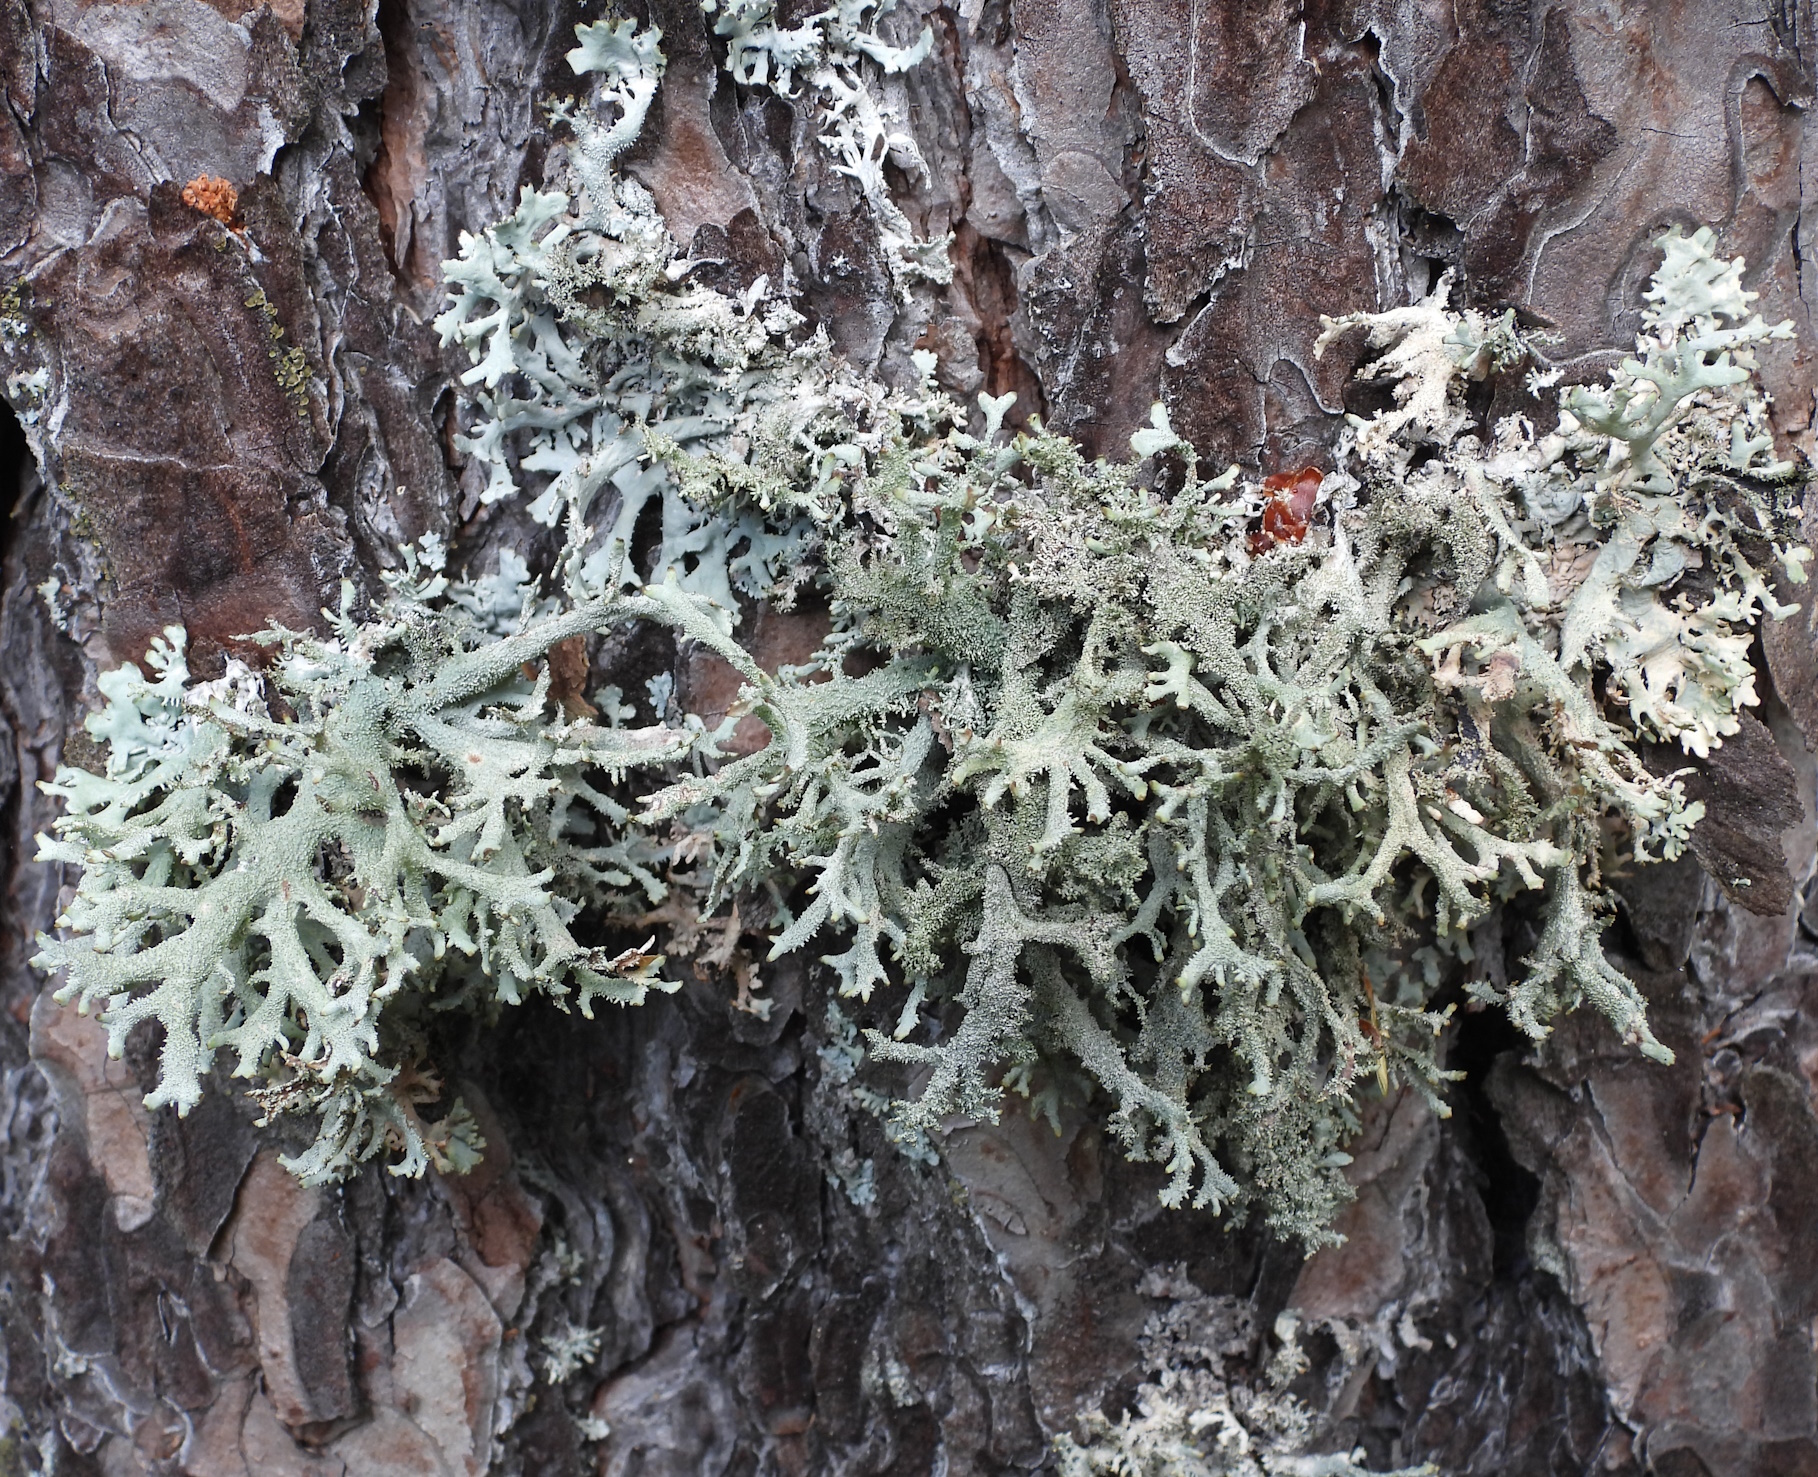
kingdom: Fungi
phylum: Ascomycota
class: Lecanoromycetes
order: Lecanorales
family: Parmeliaceae
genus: Pseudevernia
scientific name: Pseudevernia furfuracea
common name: Tree moss
